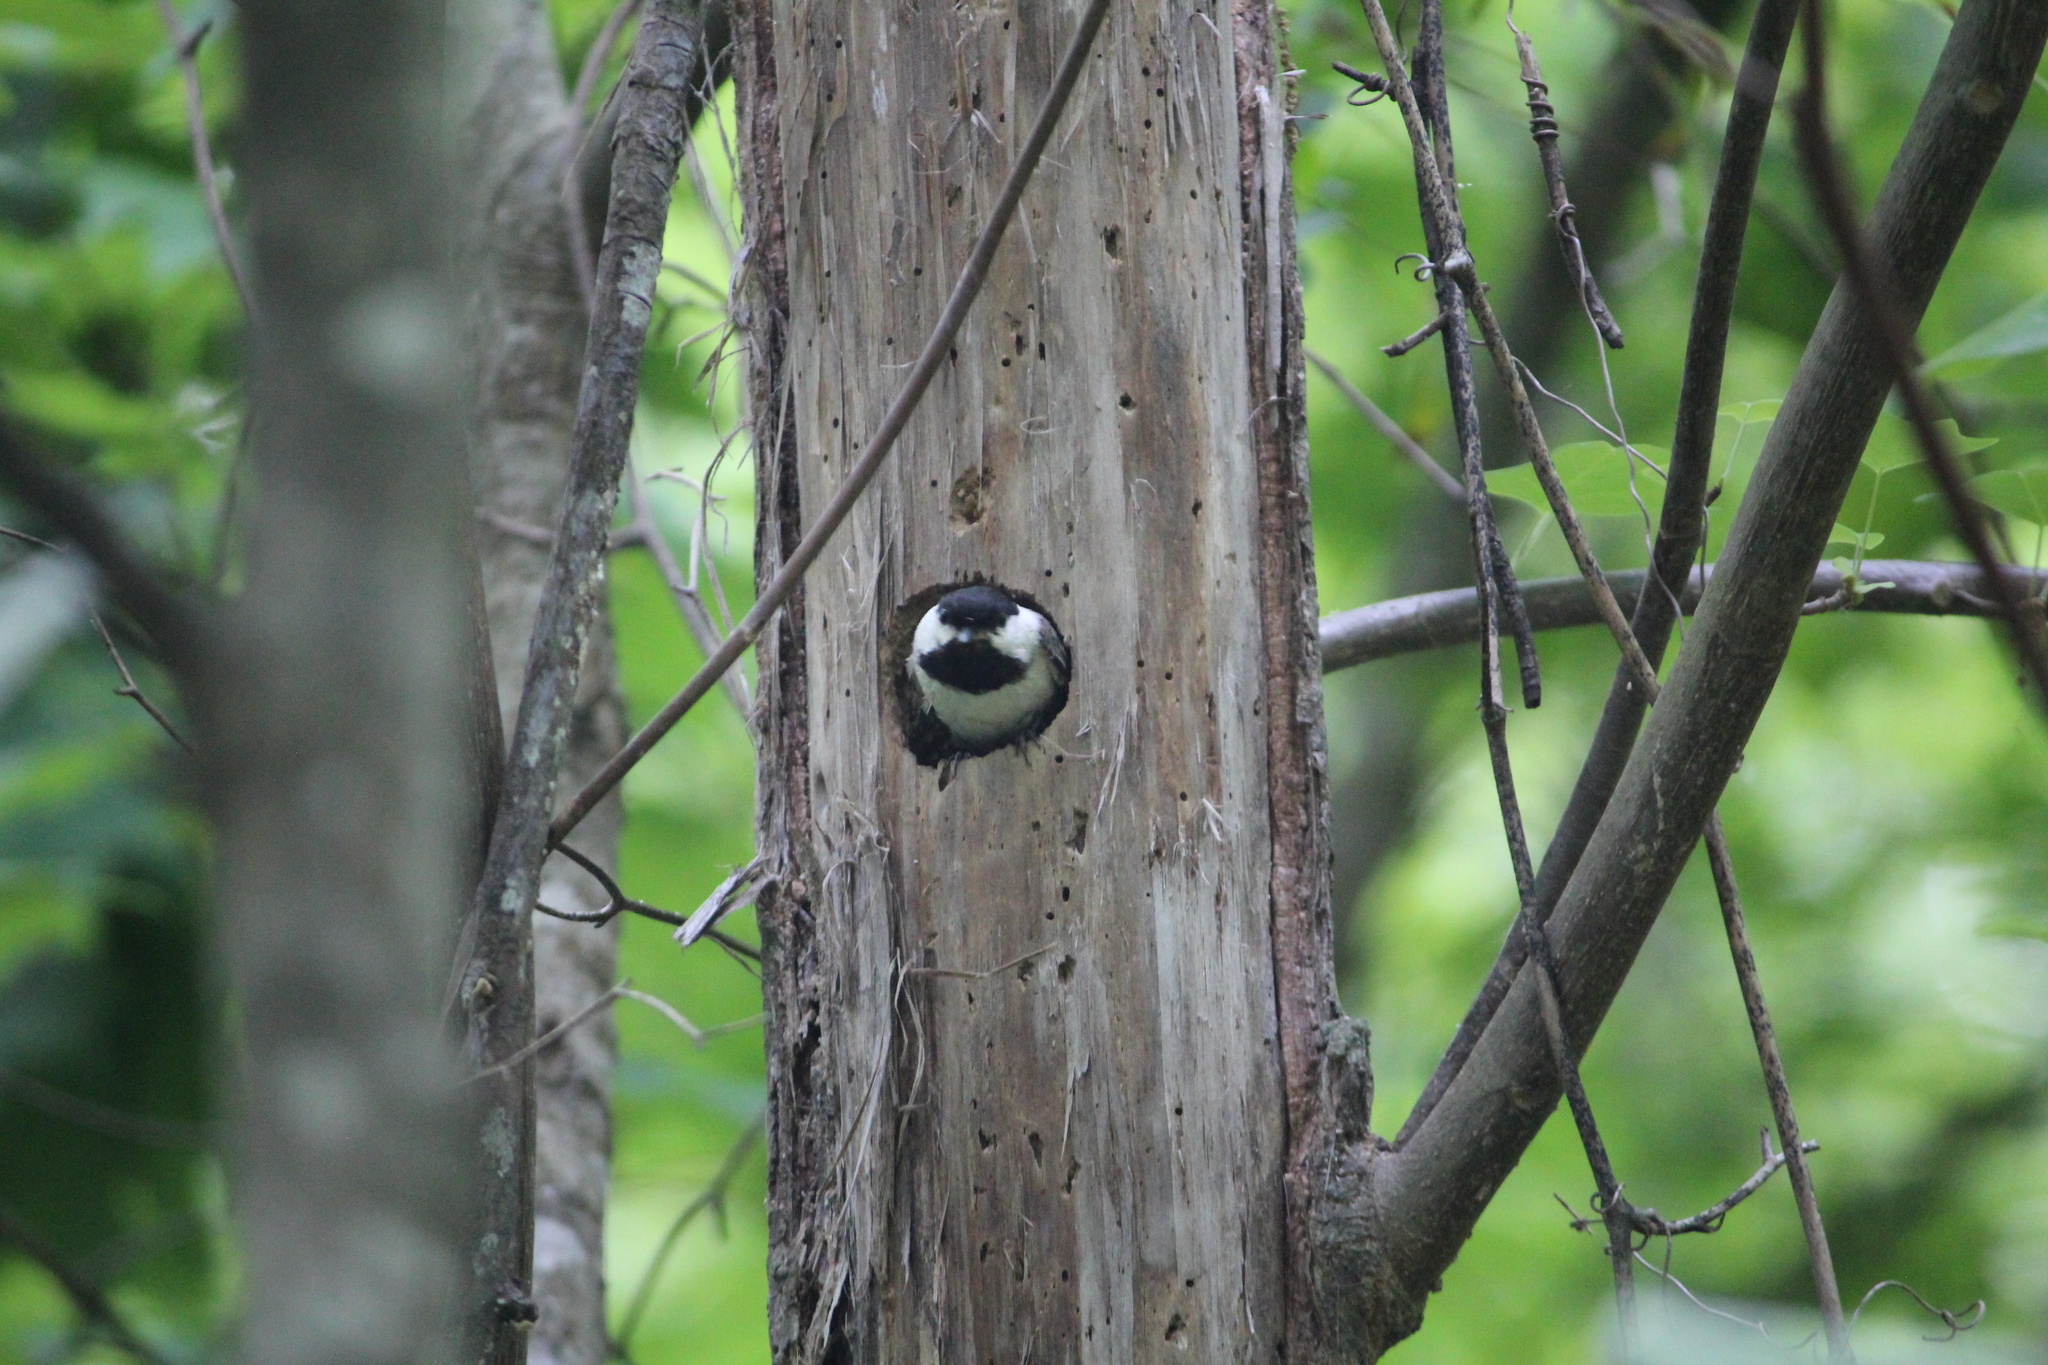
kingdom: Animalia
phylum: Chordata
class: Aves
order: Passeriformes
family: Paridae
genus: Poecile
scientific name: Poecile carolinensis
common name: Carolina chickadee
